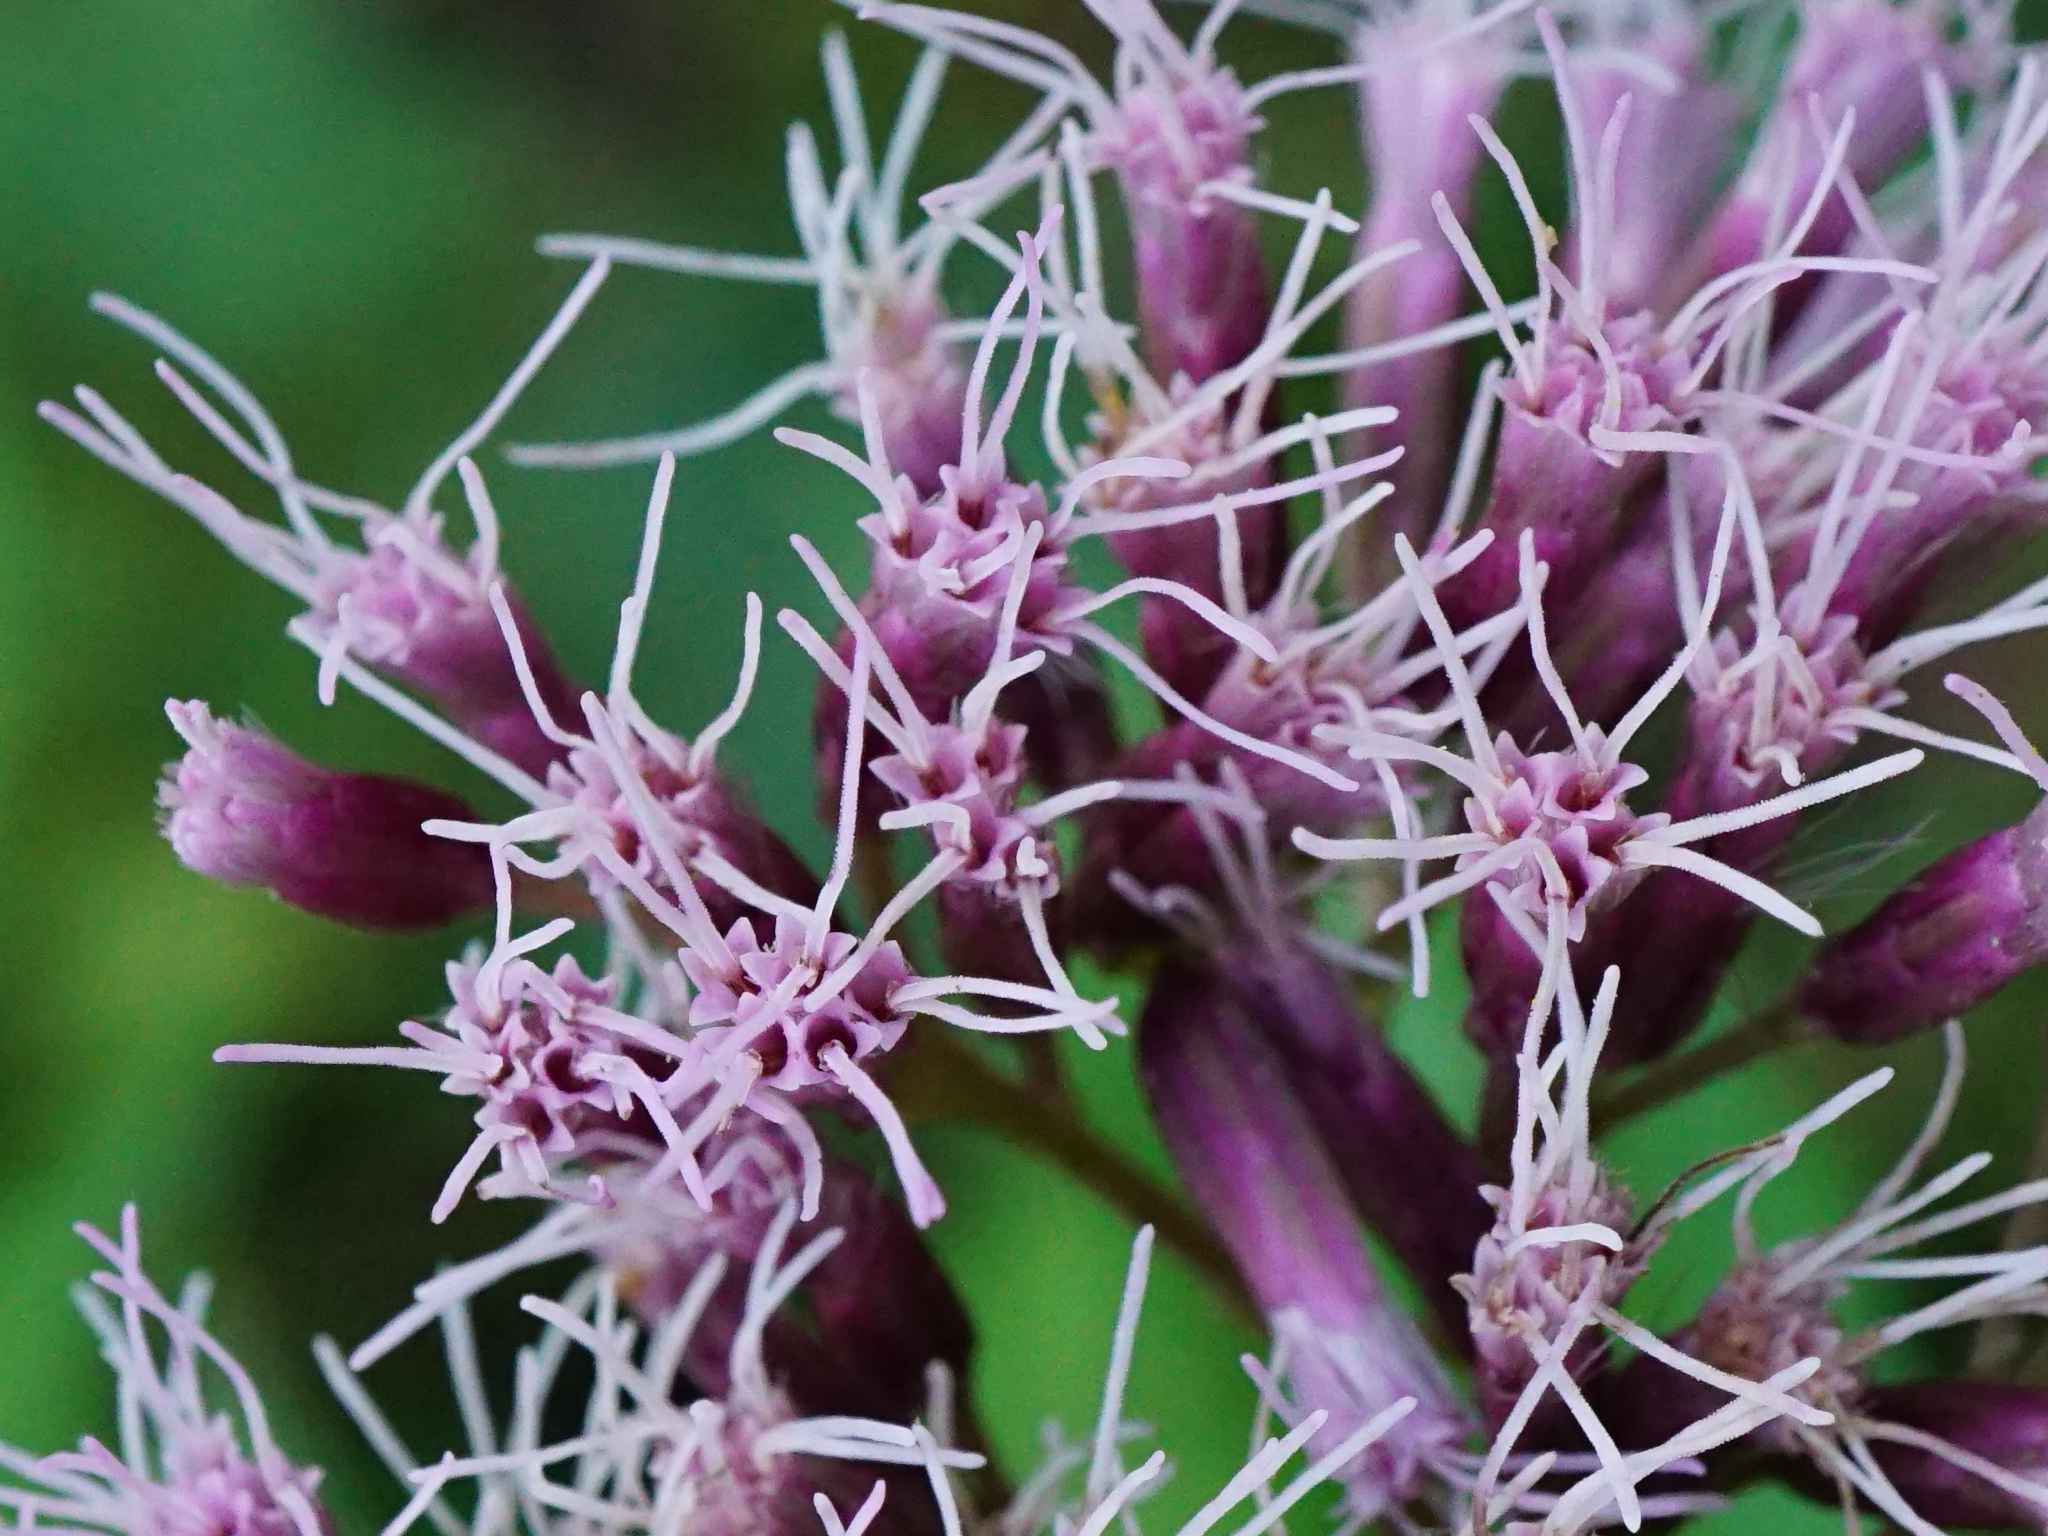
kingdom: Plantae
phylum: Tracheophyta
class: Magnoliopsida
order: Asterales
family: Asteraceae
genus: Eupatorium
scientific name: Eupatorium cannabinum
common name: Hemp-agrimony
